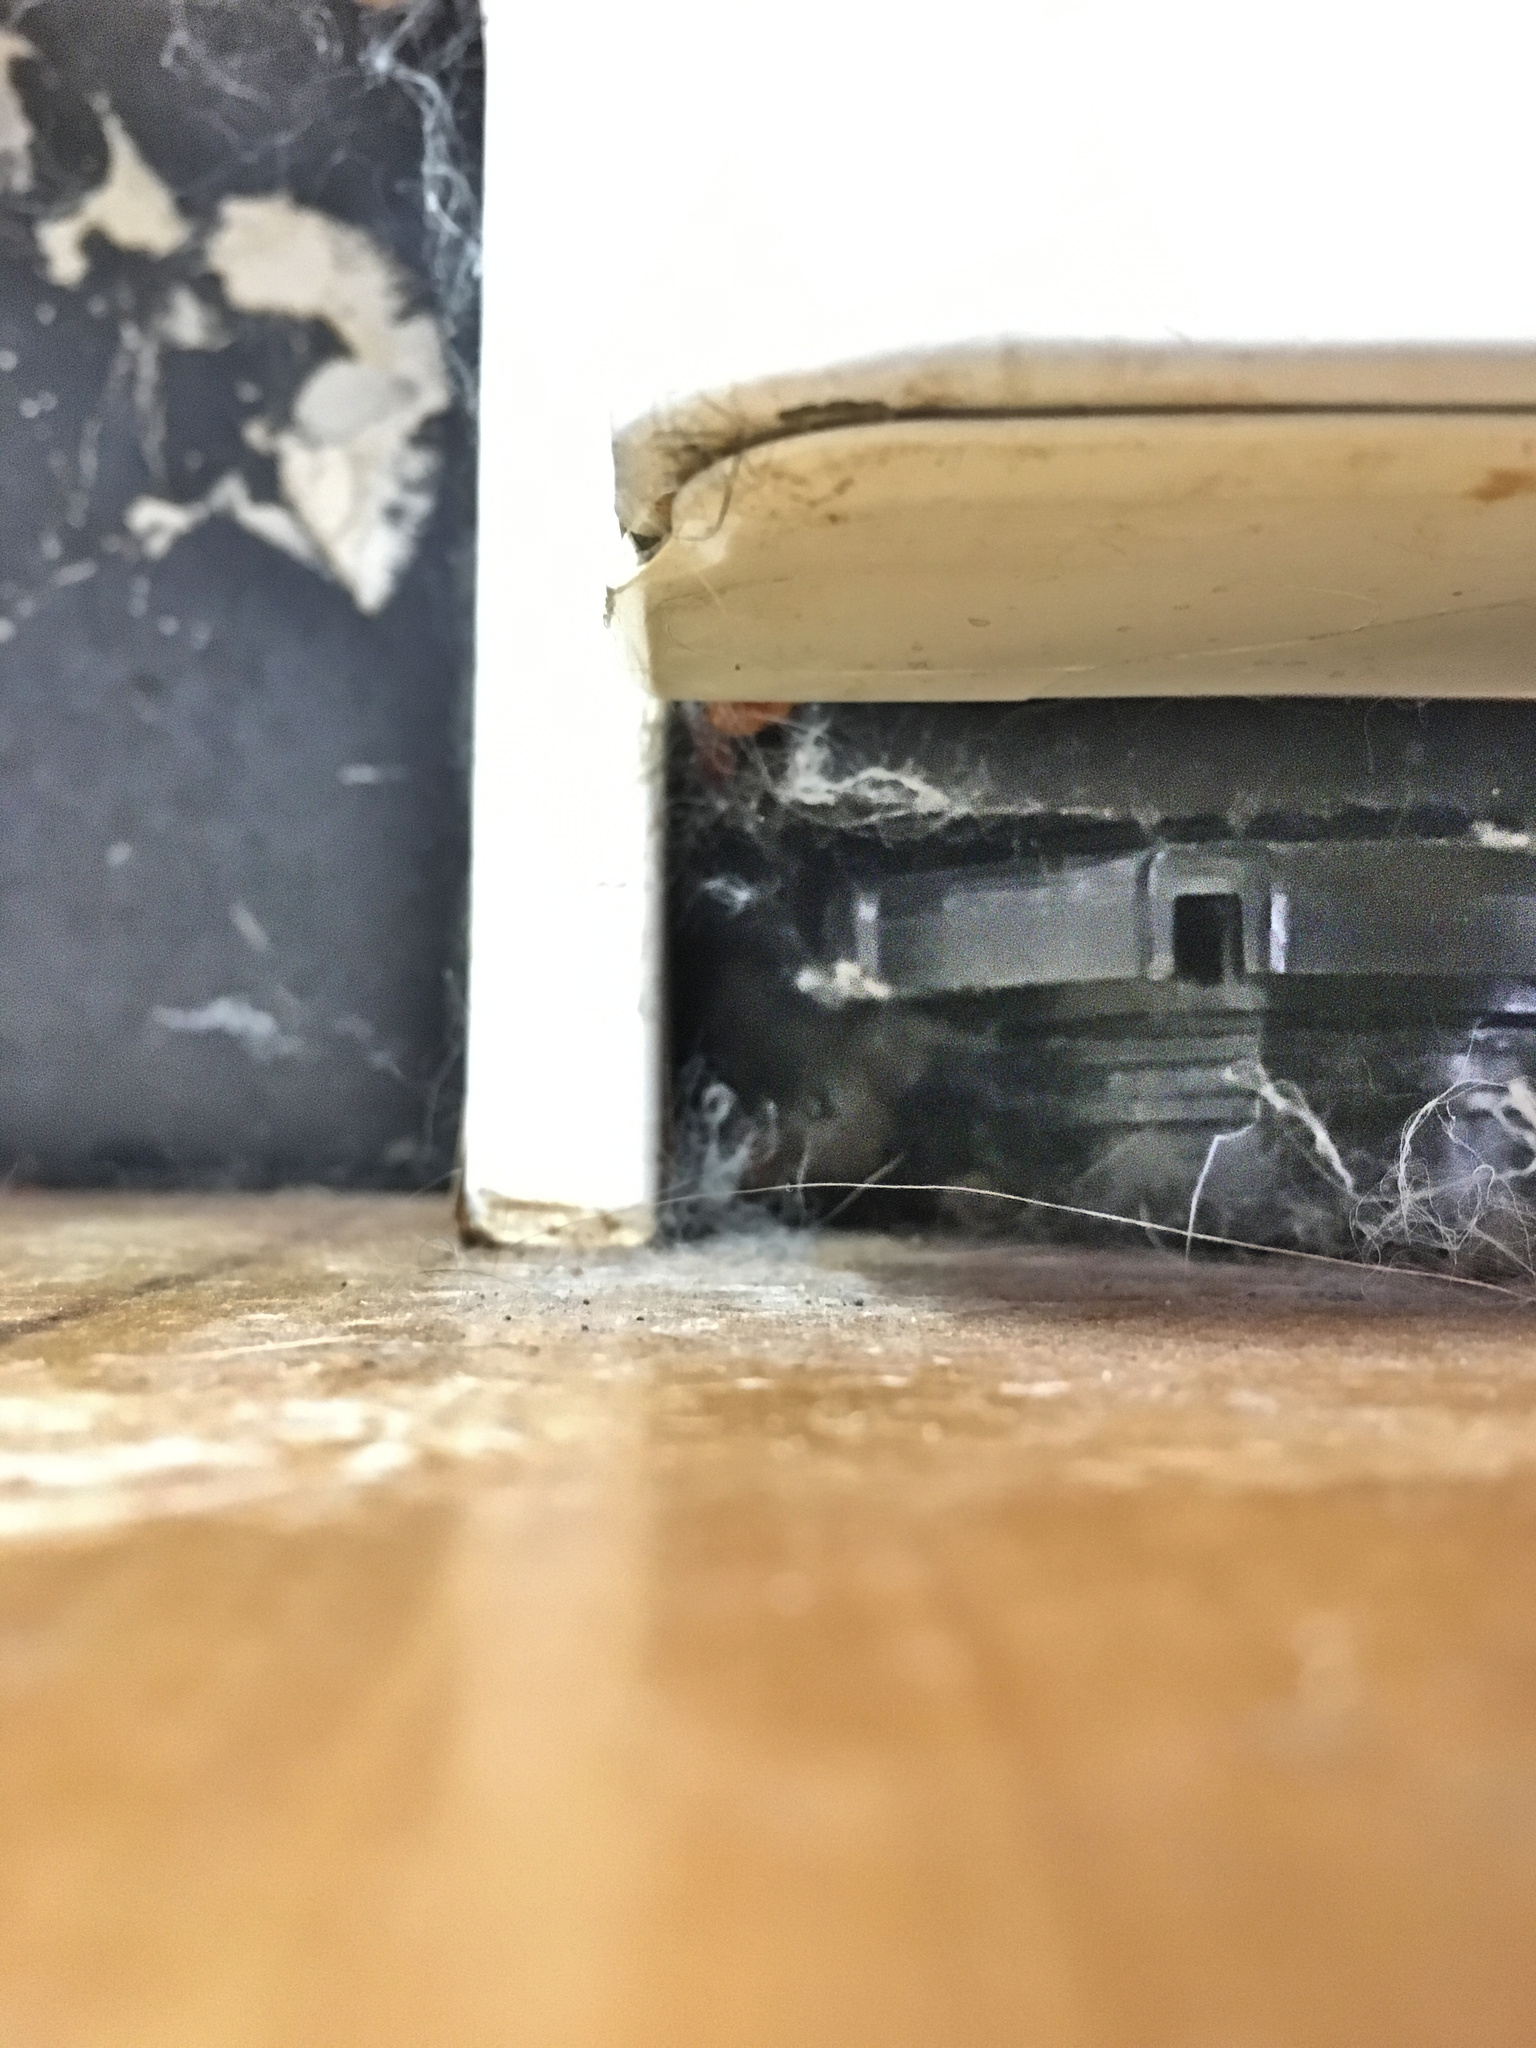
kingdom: Animalia
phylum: Chordata
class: Mammalia
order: Rodentia
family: Muridae
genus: Mus
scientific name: Mus musculus
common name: House mouse
